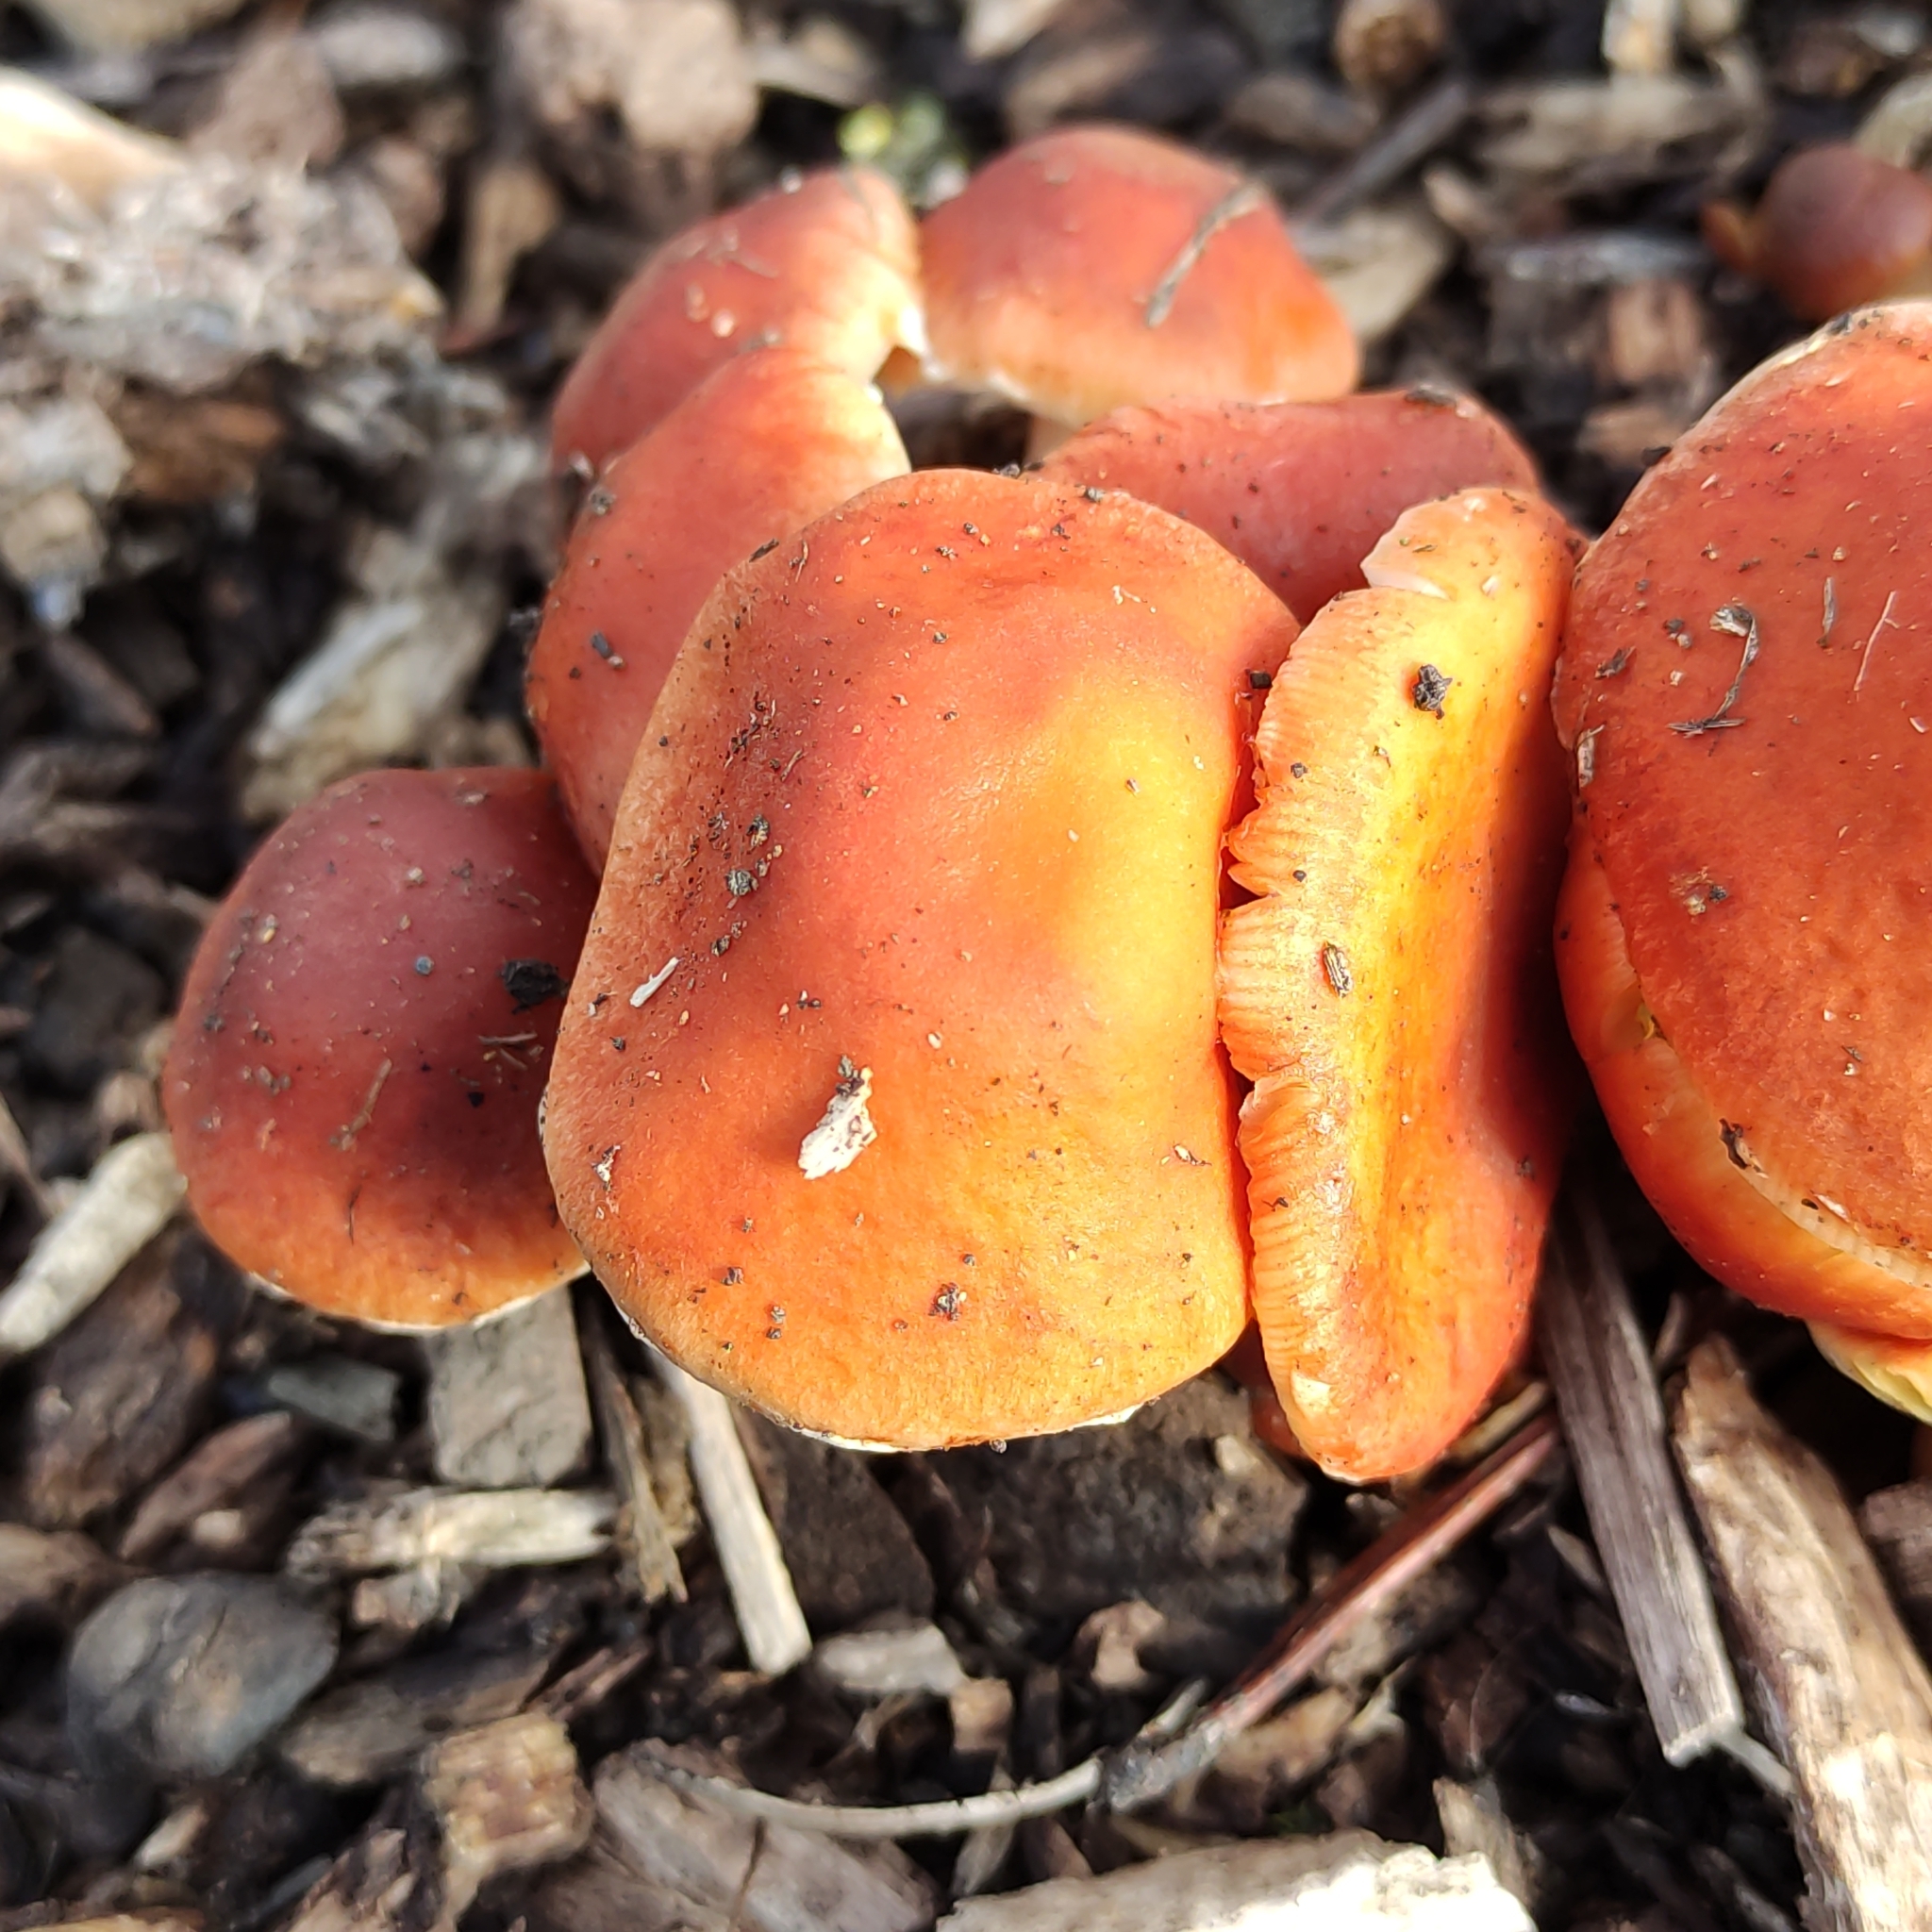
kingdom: Fungi
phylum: Basidiomycota
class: Agaricomycetes
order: Agaricales
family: Strophariaceae
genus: Leratiomyces
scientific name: Leratiomyces ceres
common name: Redlead roundhead
